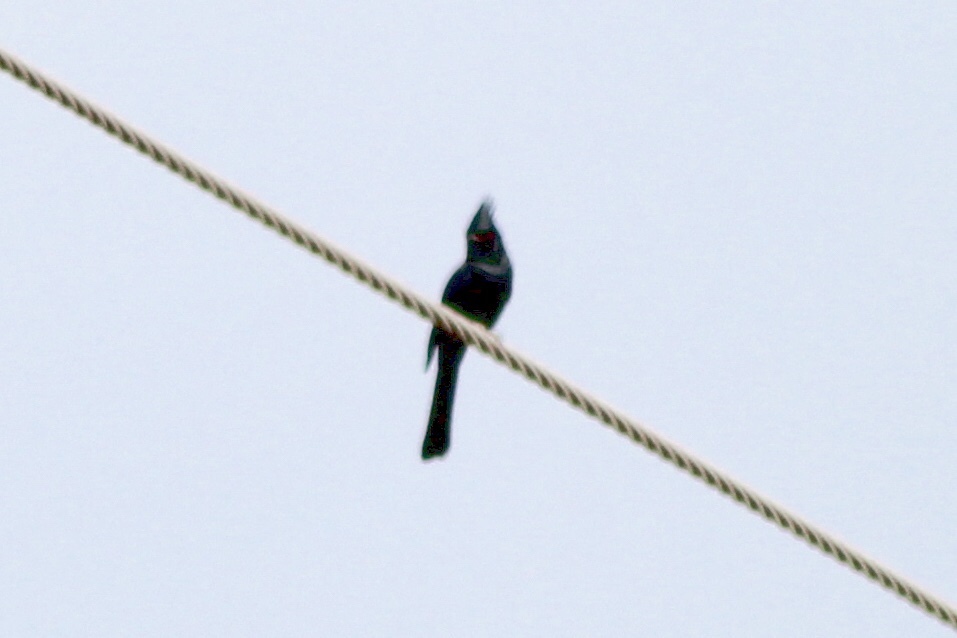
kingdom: Animalia
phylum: Chordata
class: Aves
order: Passeriformes
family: Ptilogonatidae
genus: Phainopepla
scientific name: Phainopepla nitens
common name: Phainopepla
